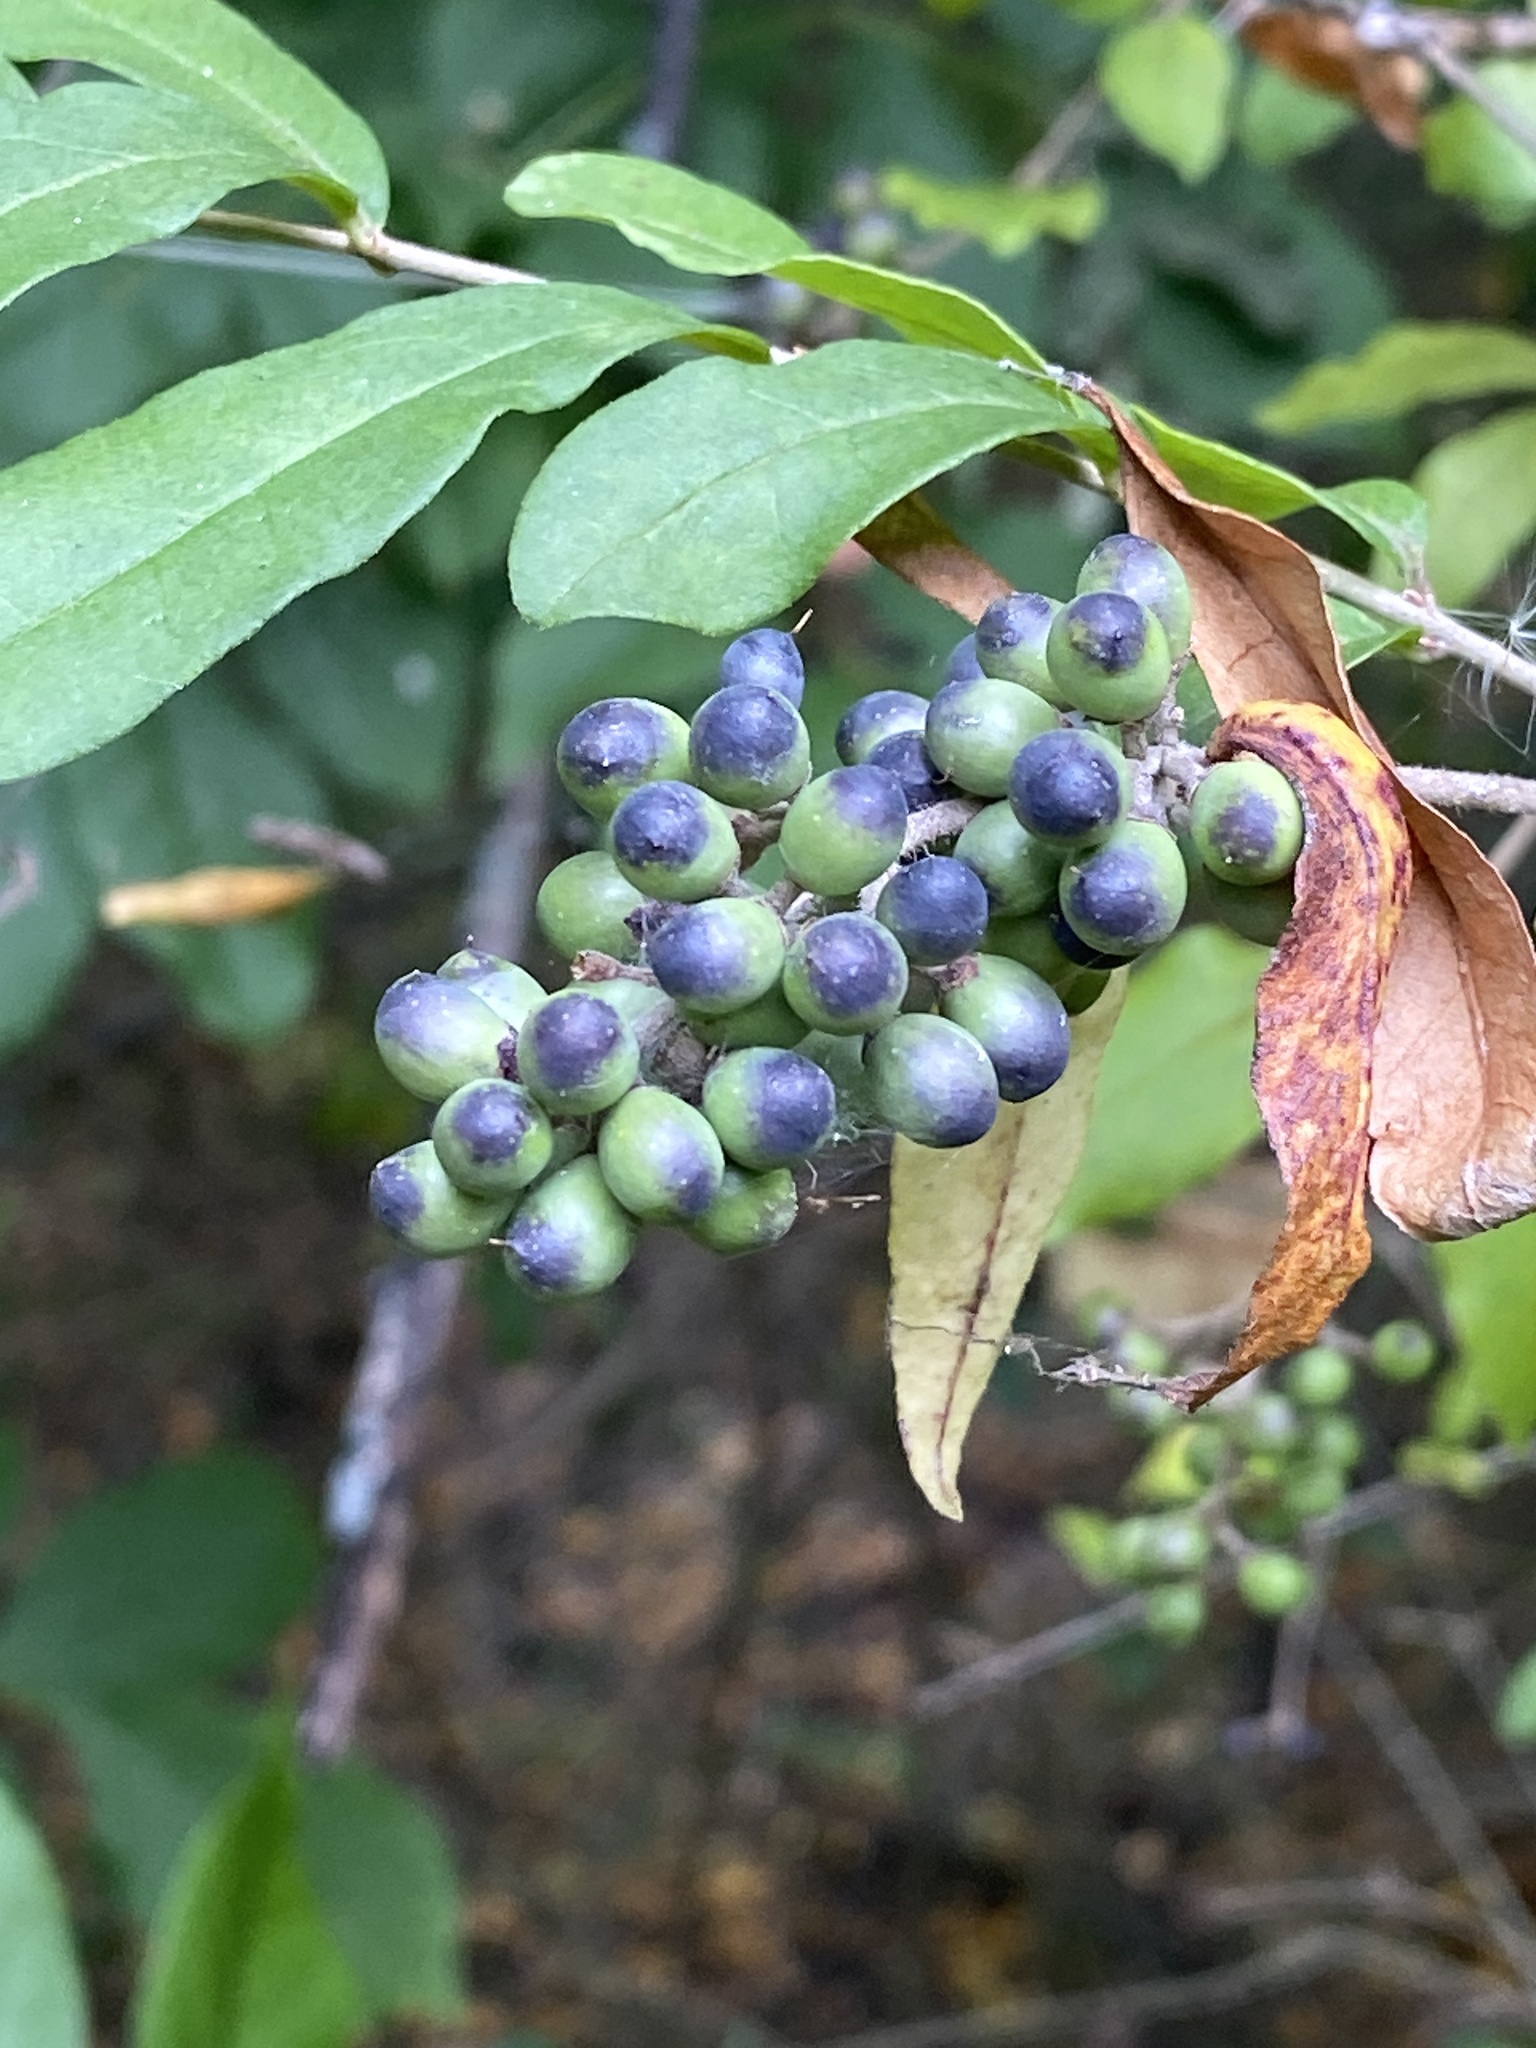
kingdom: Plantae
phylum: Tracheophyta
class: Magnoliopsida
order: Lamiales
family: Oleaceae
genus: Ligustrum
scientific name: Ligustrum sinense
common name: Chinese privet
